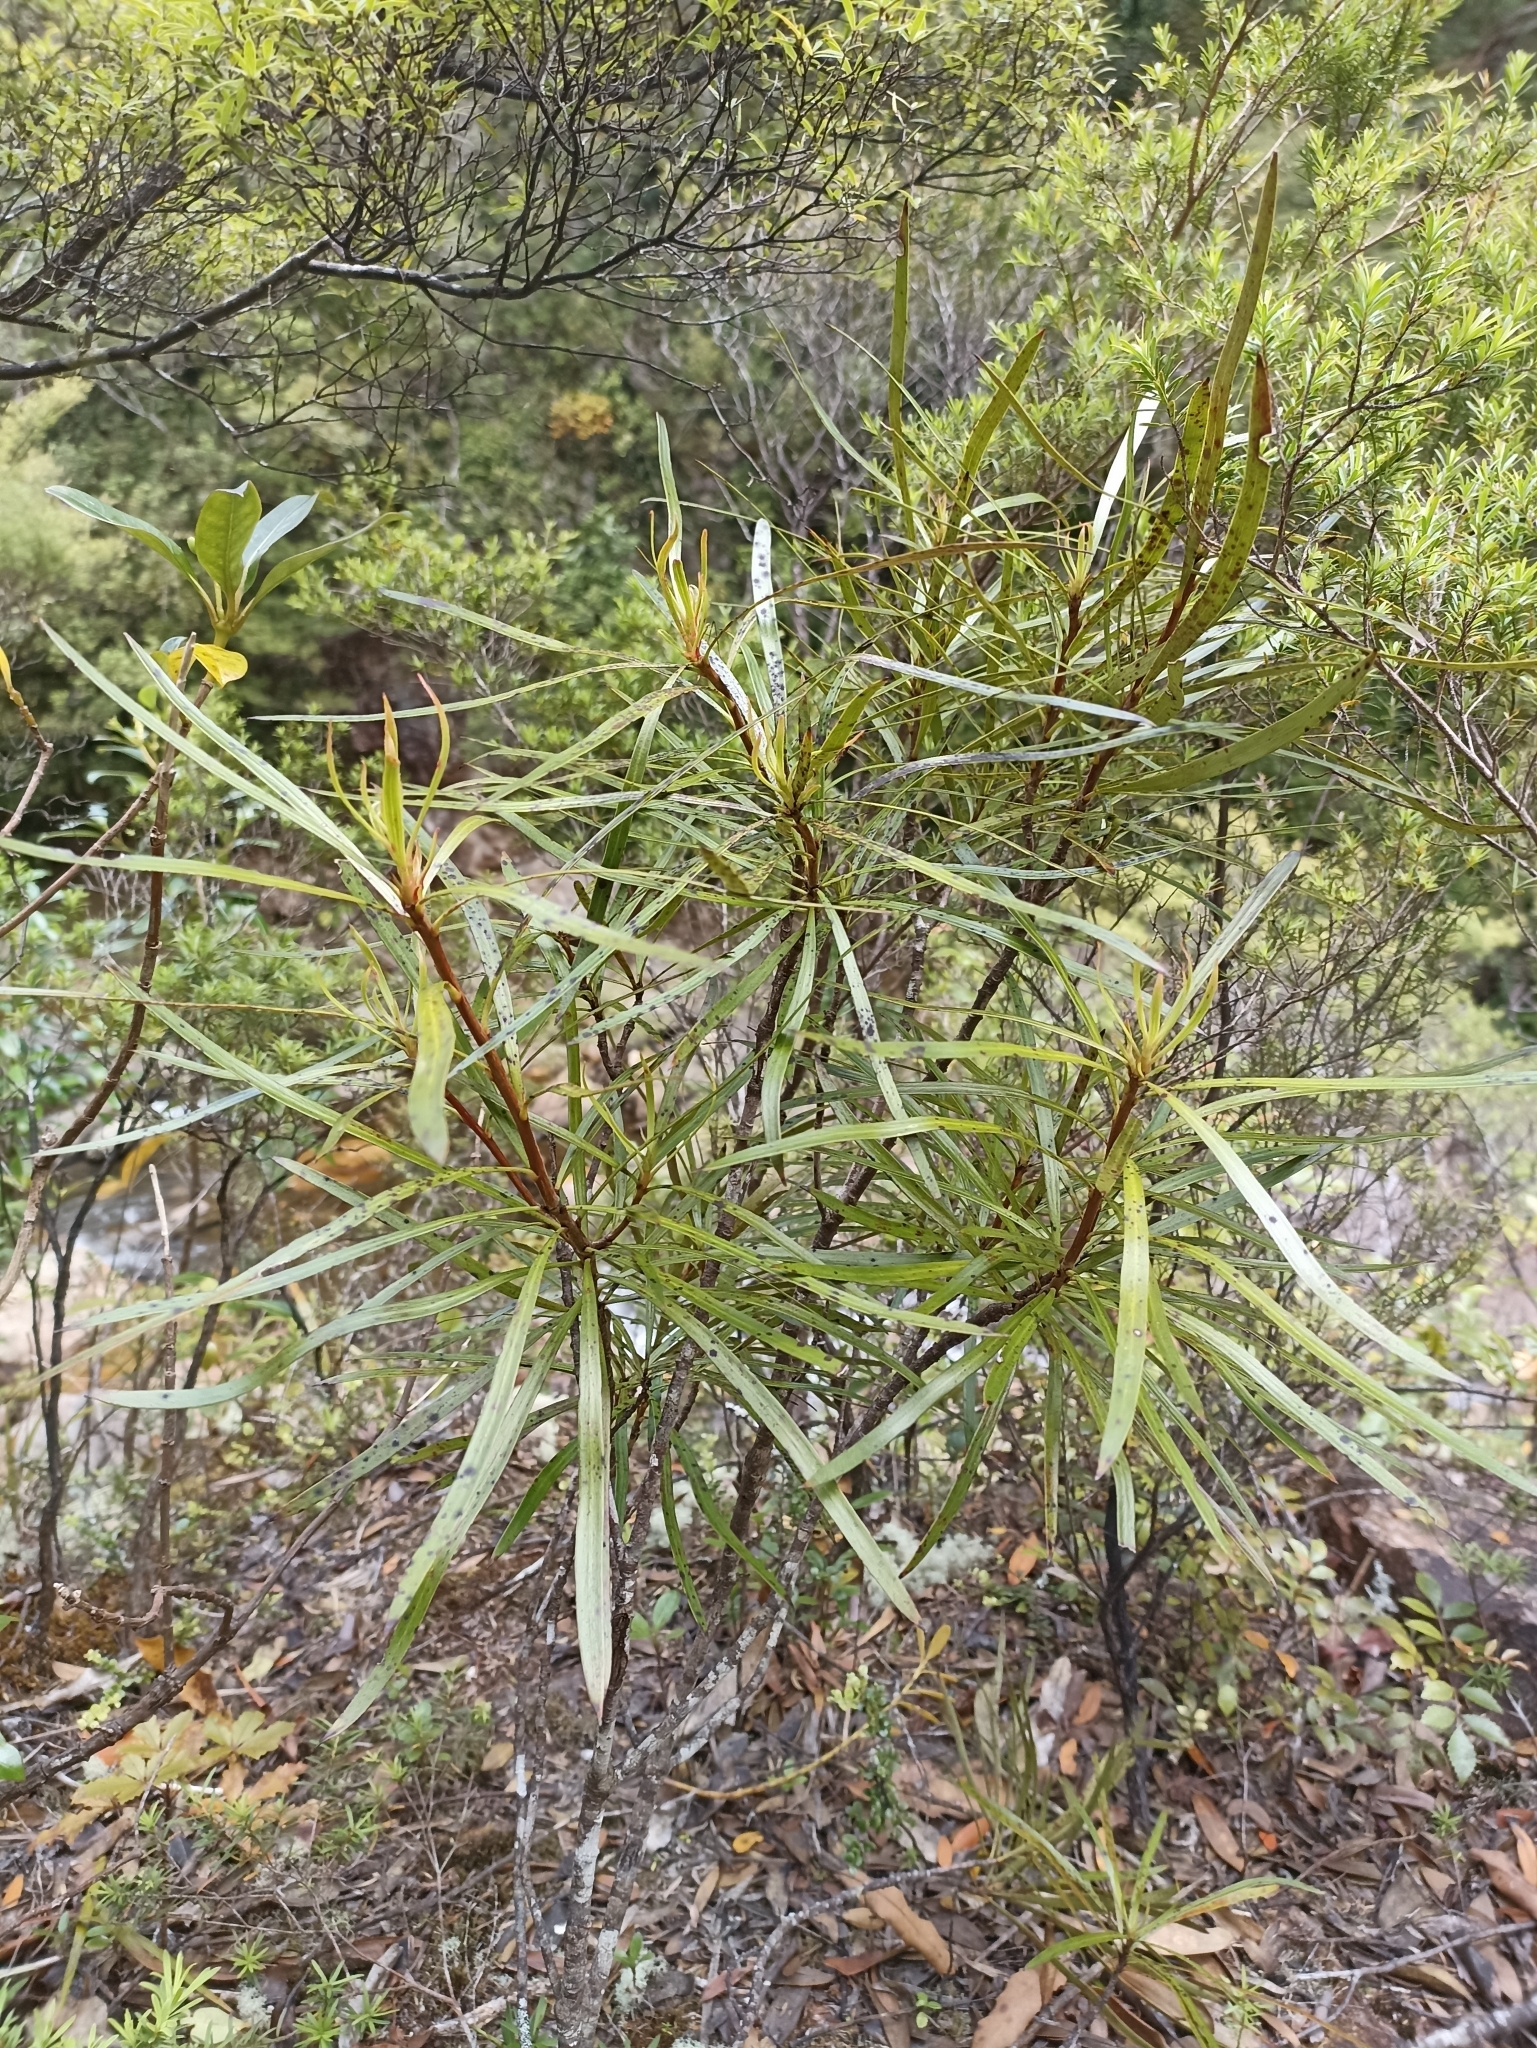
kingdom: Plantae
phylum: Tracheophyta
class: Magnoliopsida
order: Proteales
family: Proteaceae
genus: Toronia
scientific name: Toronia toru
